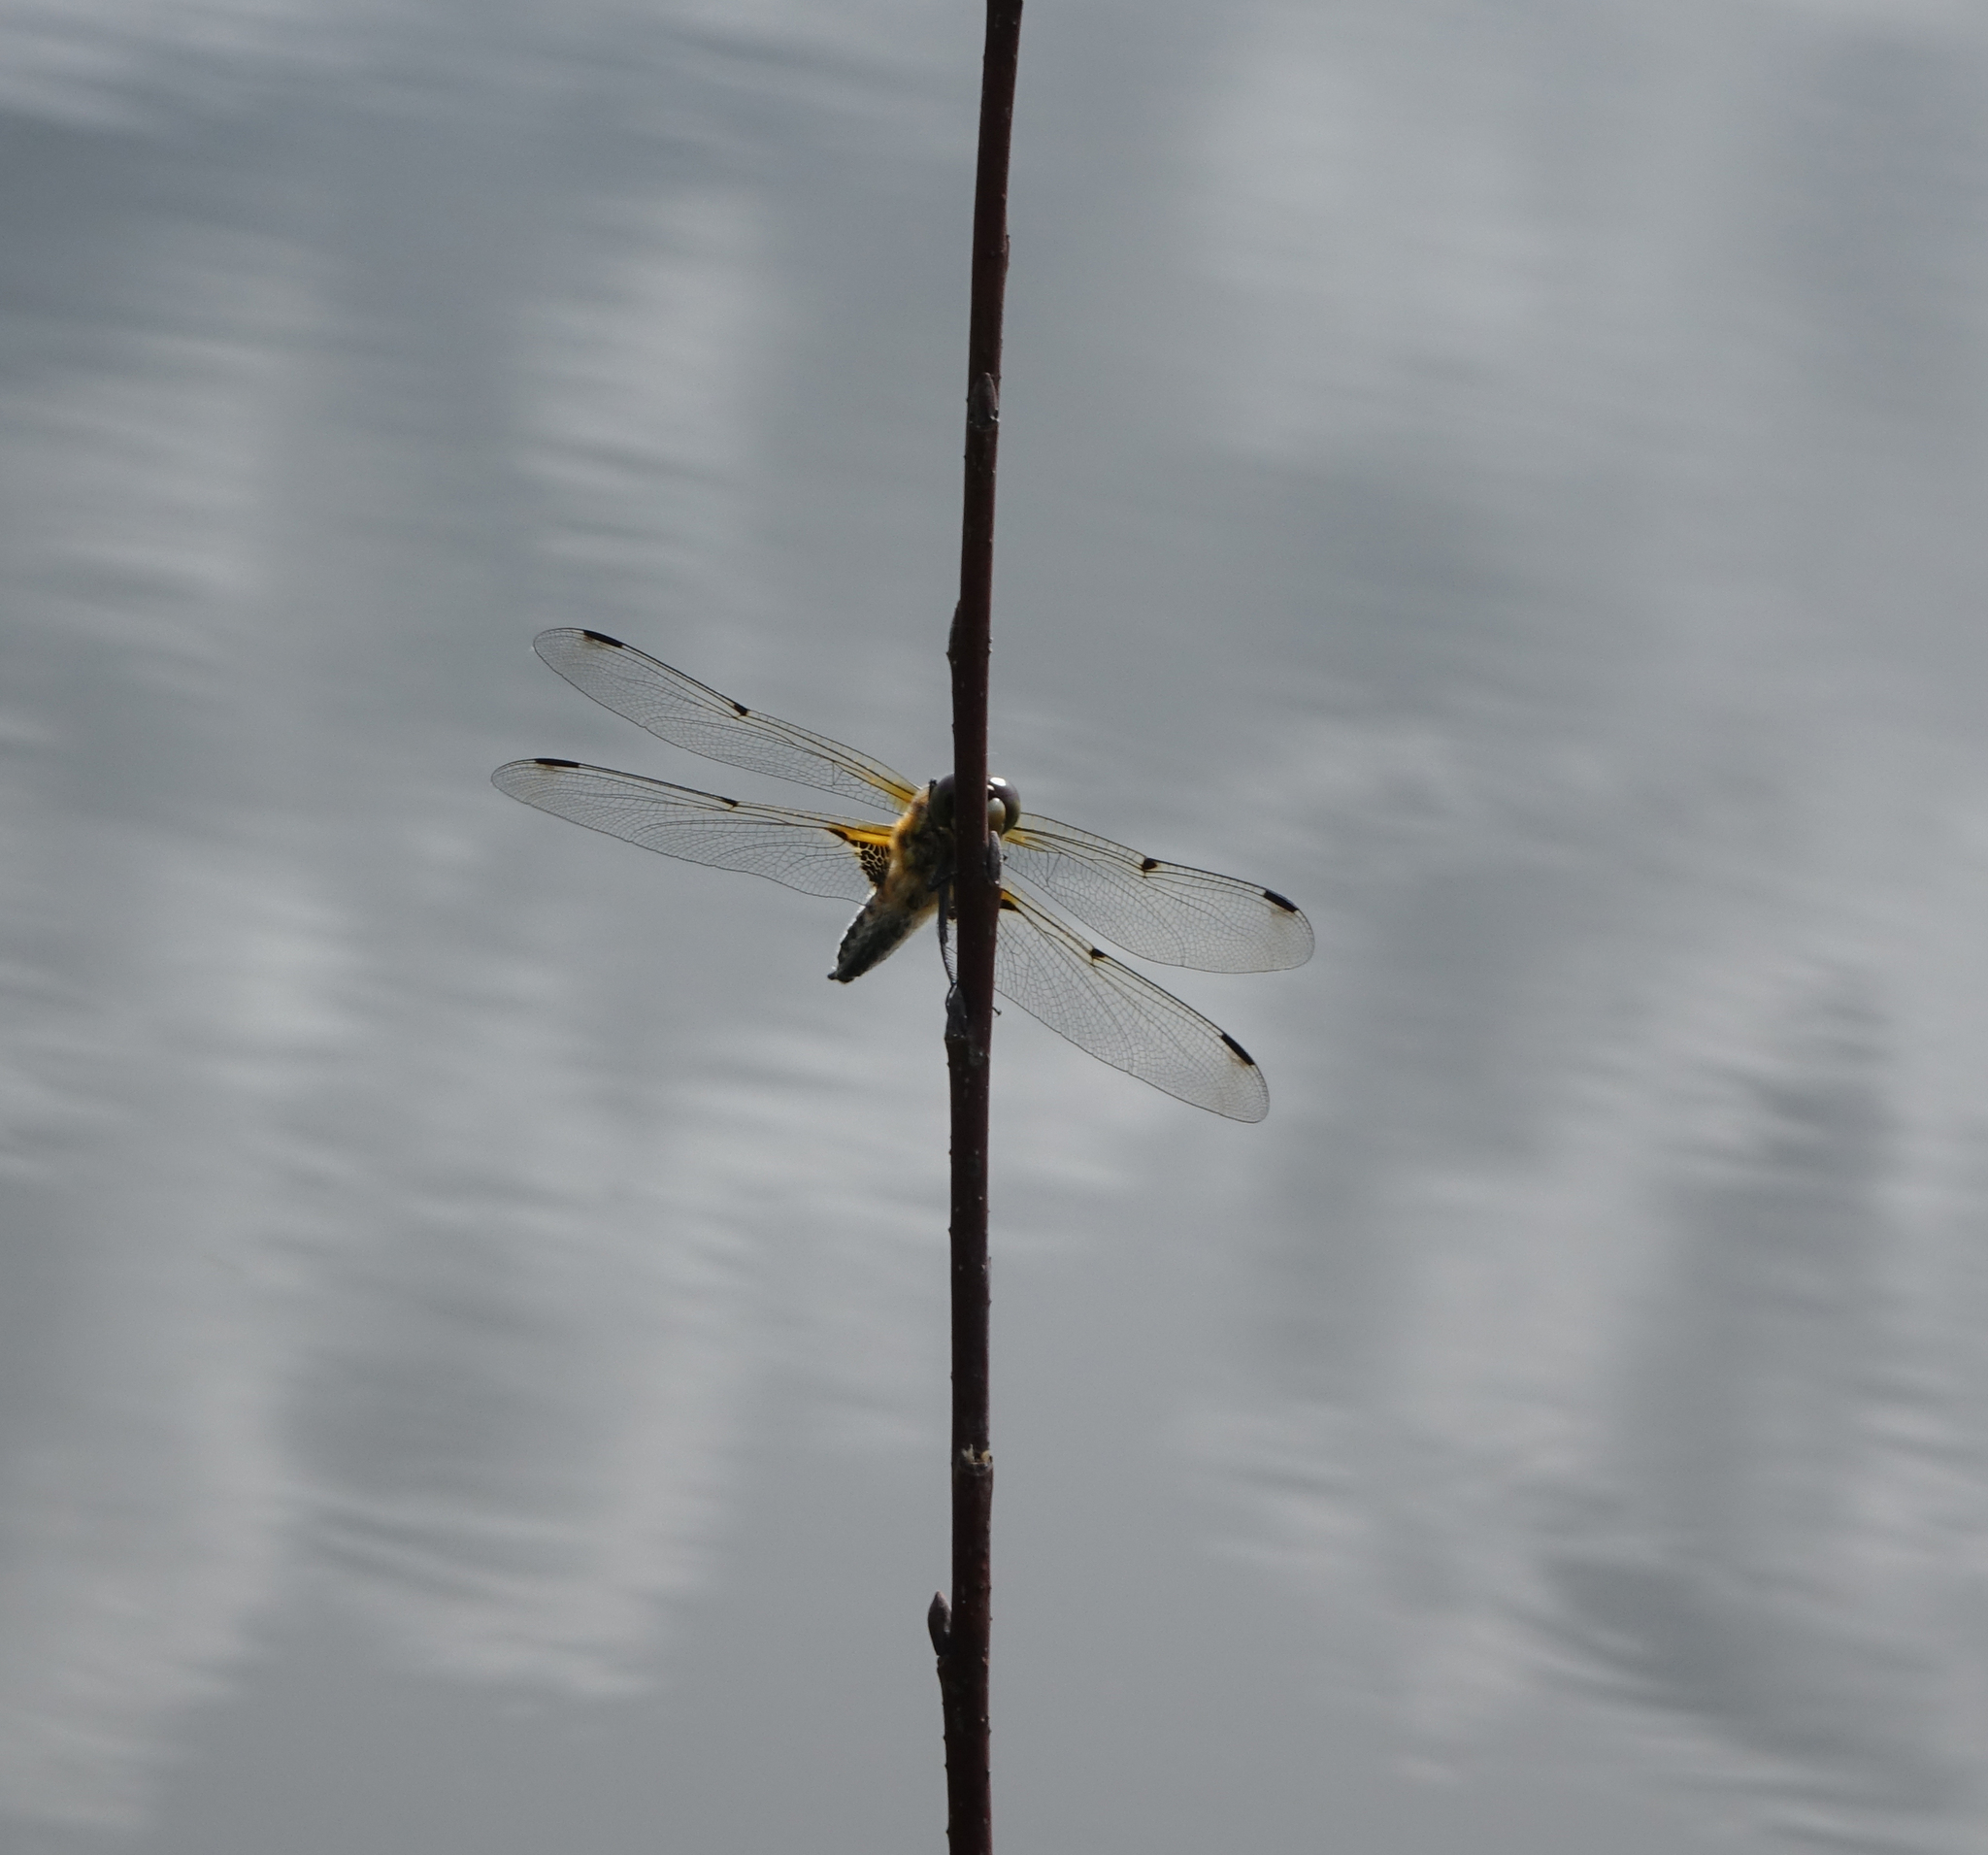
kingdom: Animalia
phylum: Arthropoda
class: Insecta
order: Odonata
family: Libellulidae
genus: Libellula
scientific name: Libellula quadrimaculata
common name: Four-spotted chaser
